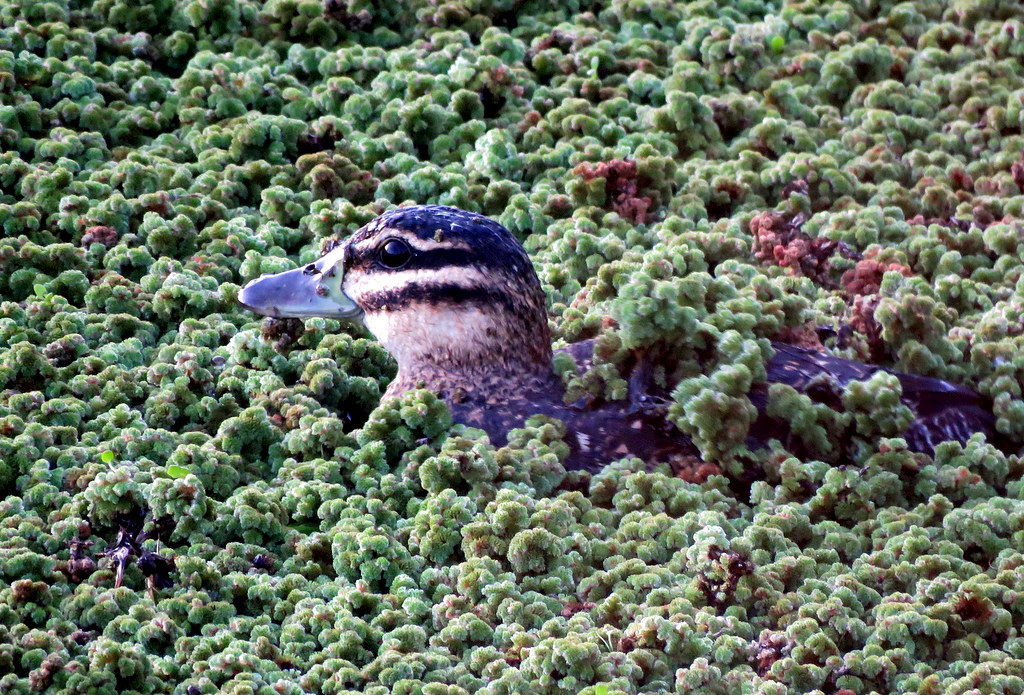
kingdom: Animalia
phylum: Chordata
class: Aves
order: Anseriformes
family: Anatidae
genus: Nomonyx
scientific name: Nomonyx dominicus
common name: Masked duck
